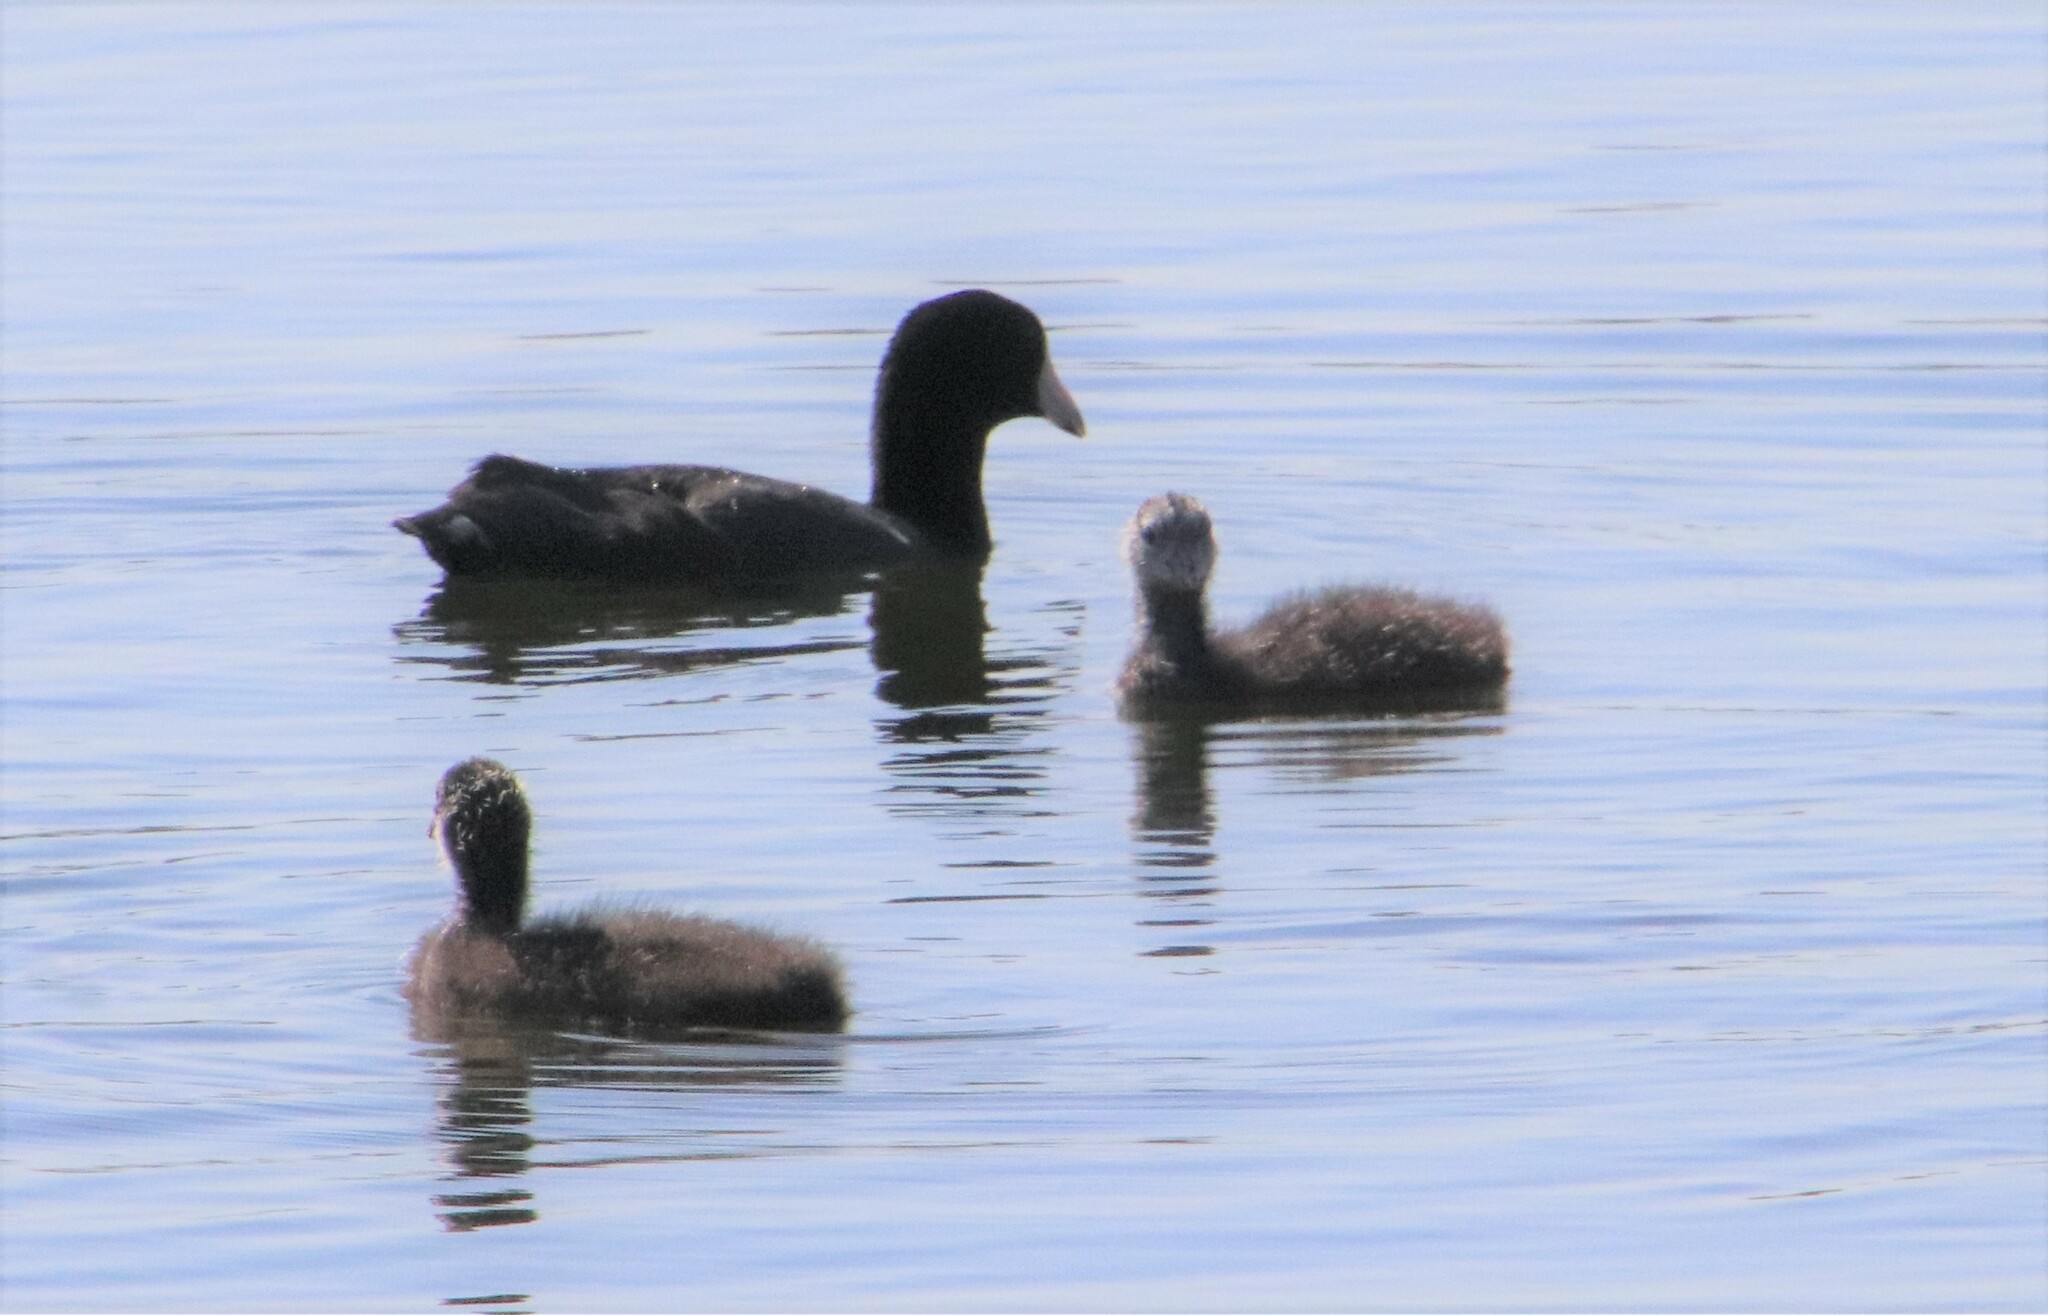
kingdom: Animalia
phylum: Chordata
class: Aves
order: Gruiformes
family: Rallidae
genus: Fulica
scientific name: Fulica americana
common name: American coot
